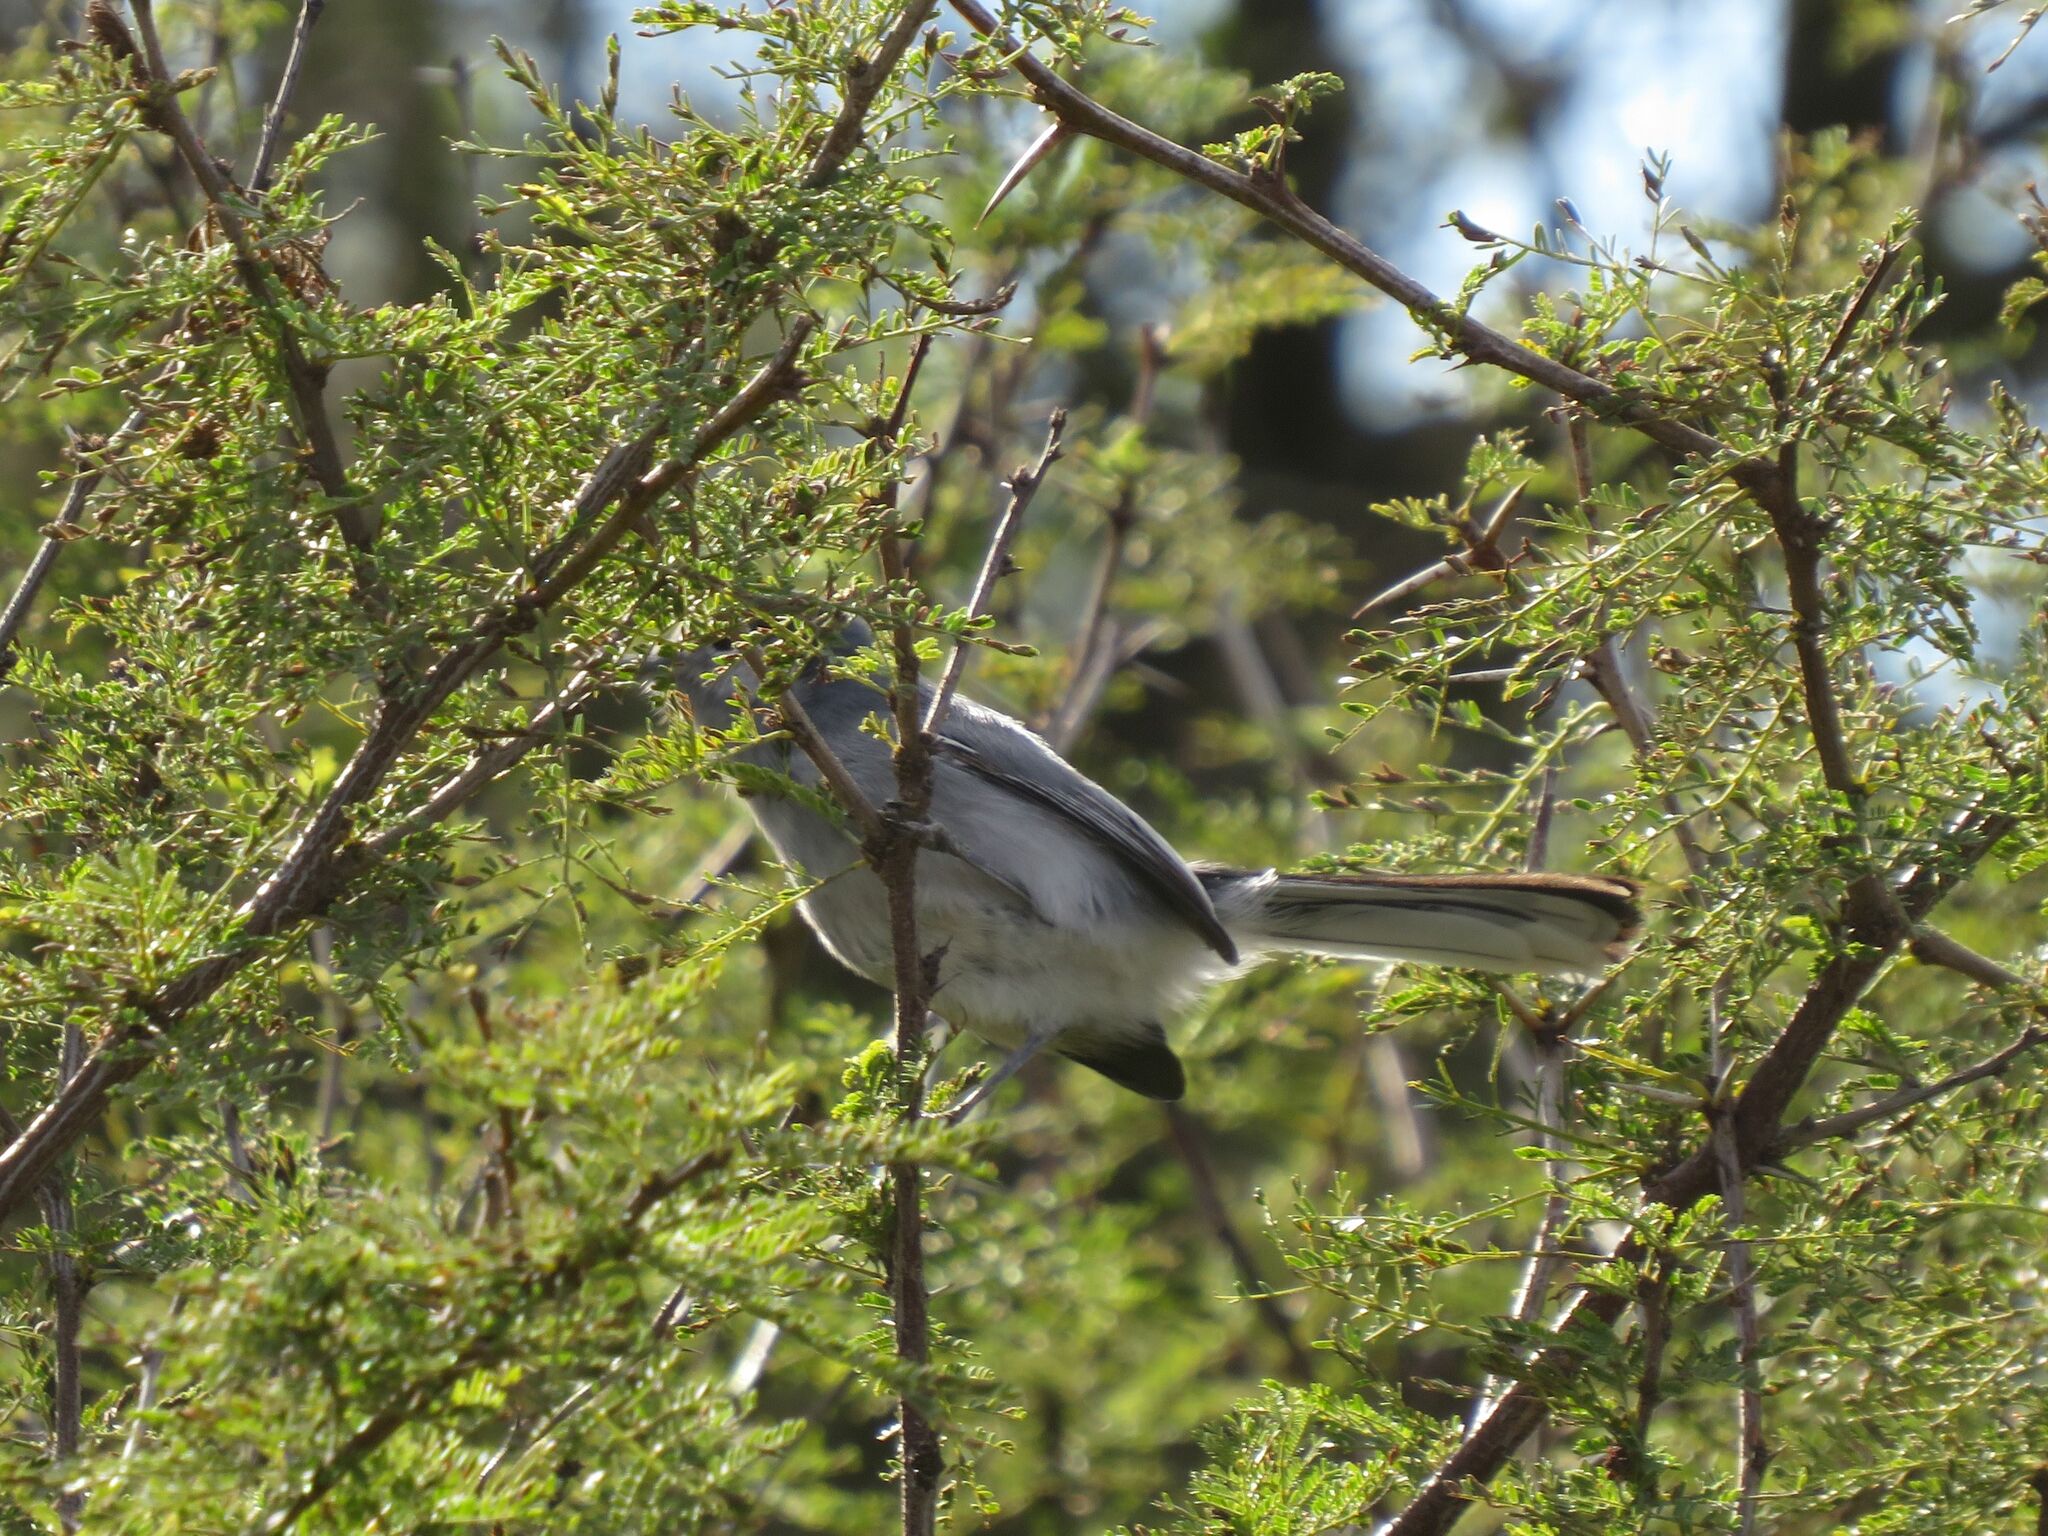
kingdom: Animalia
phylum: Chordata
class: Aves
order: Passeriformes
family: Polioptilidae
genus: Polioptila
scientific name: Polioptila dumicola
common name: Masked gnatcatcher
